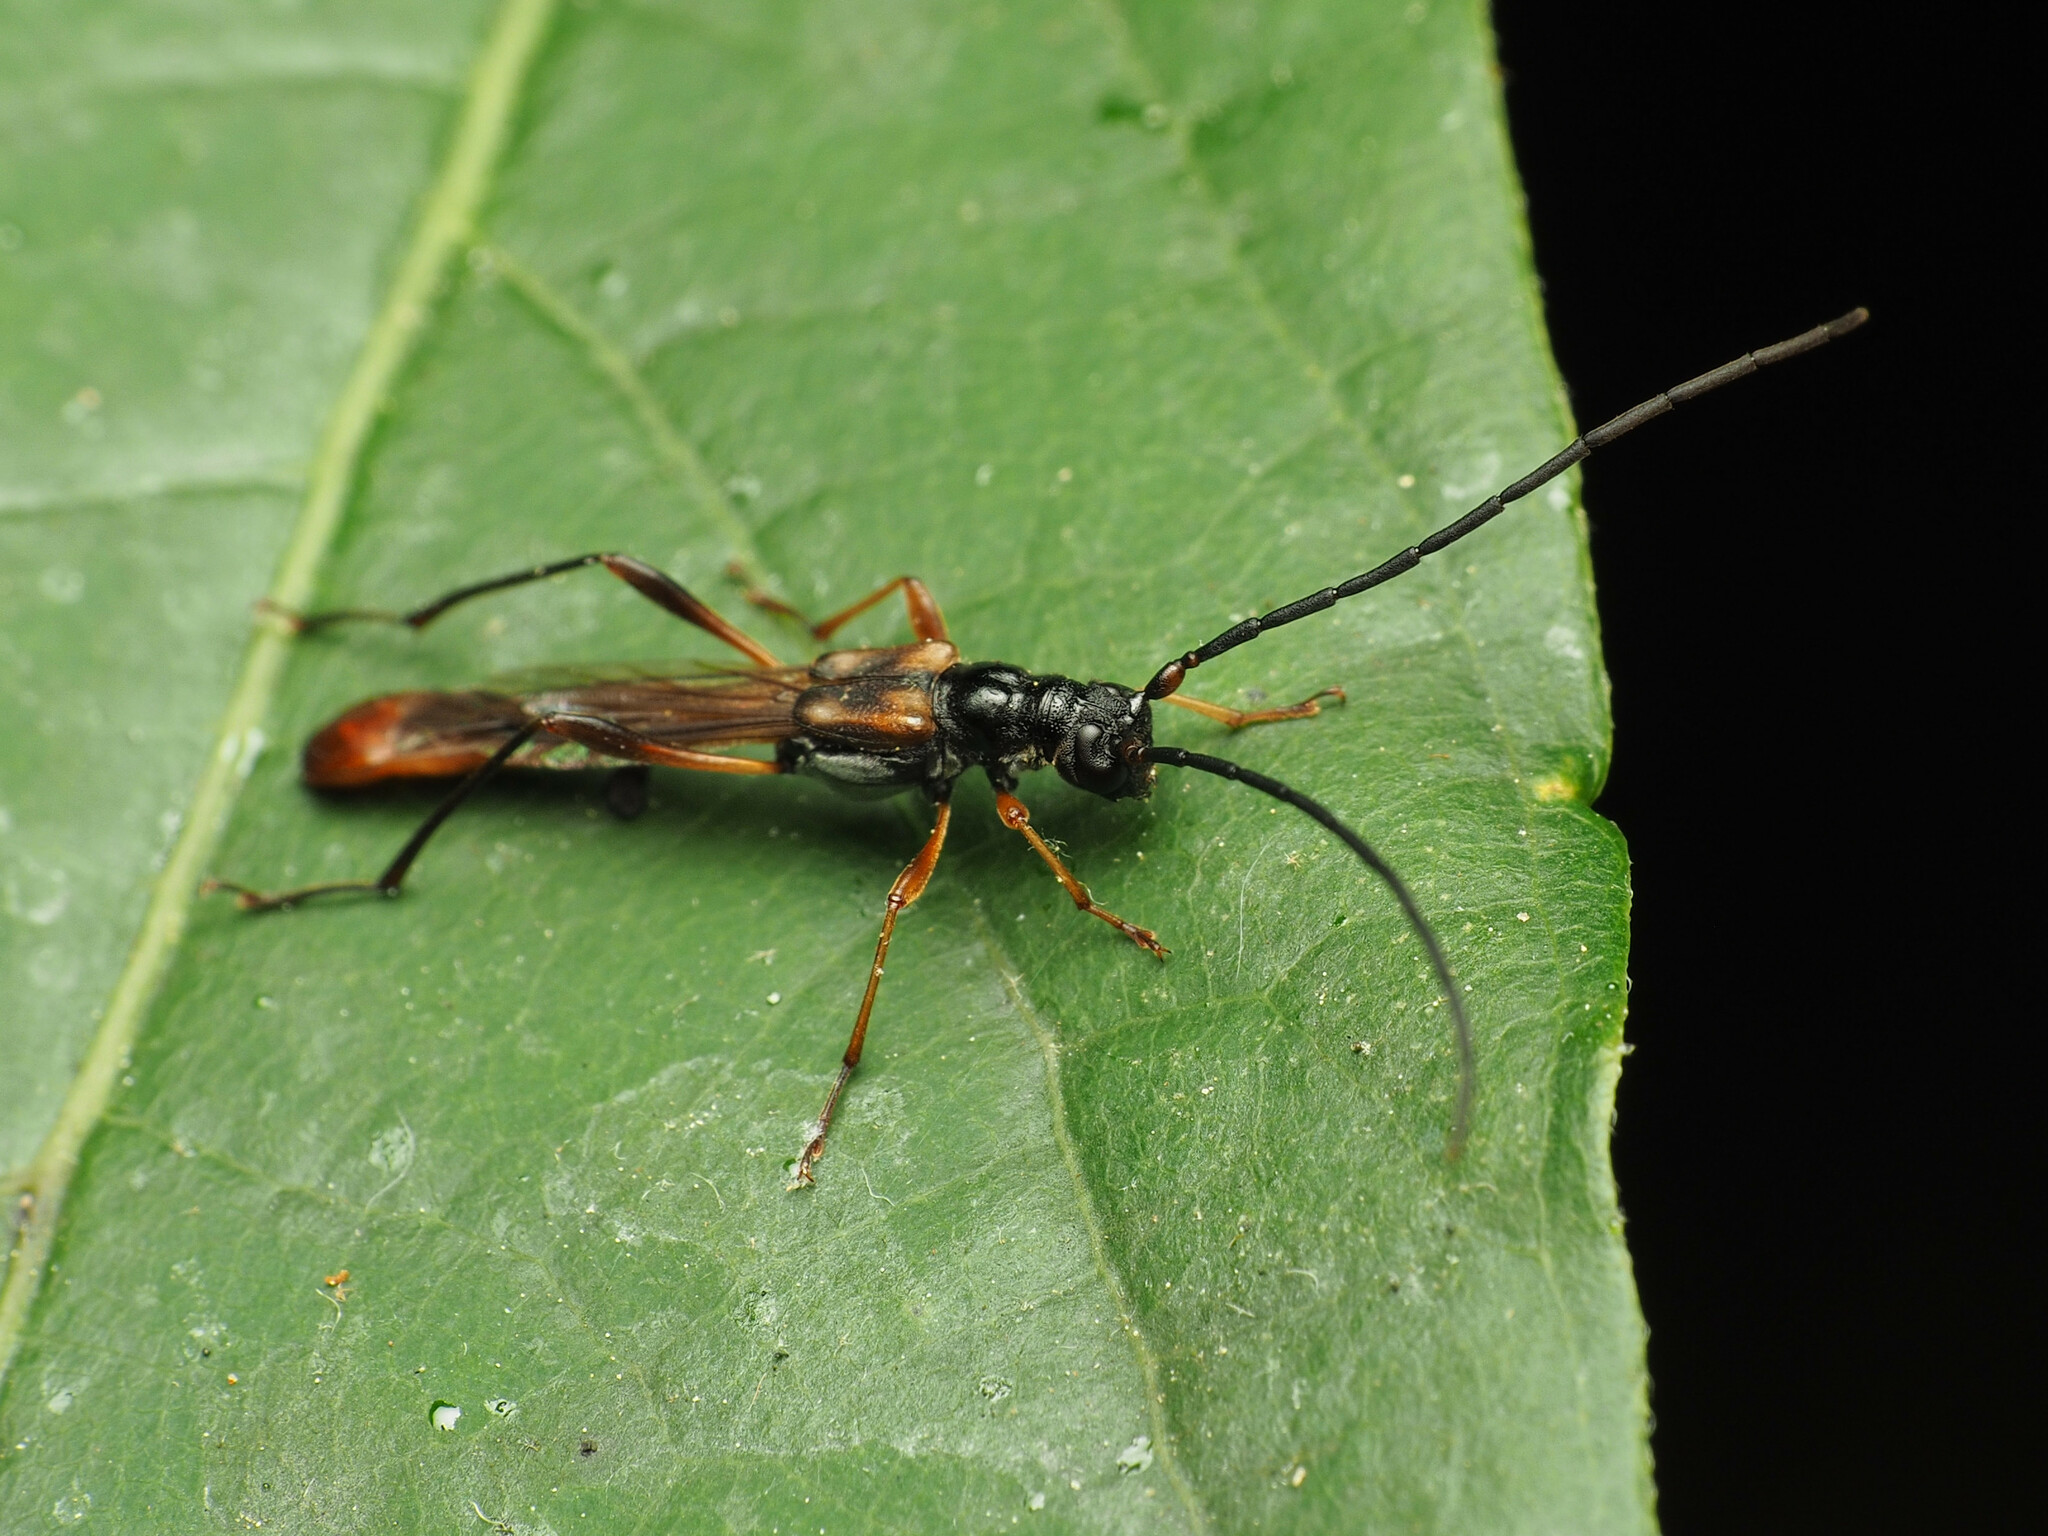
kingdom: Animalia
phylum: Arthropoda
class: Insecta
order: Coleoptera
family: Cerambycidae
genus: Necydalis
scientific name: Necydalis mellita
